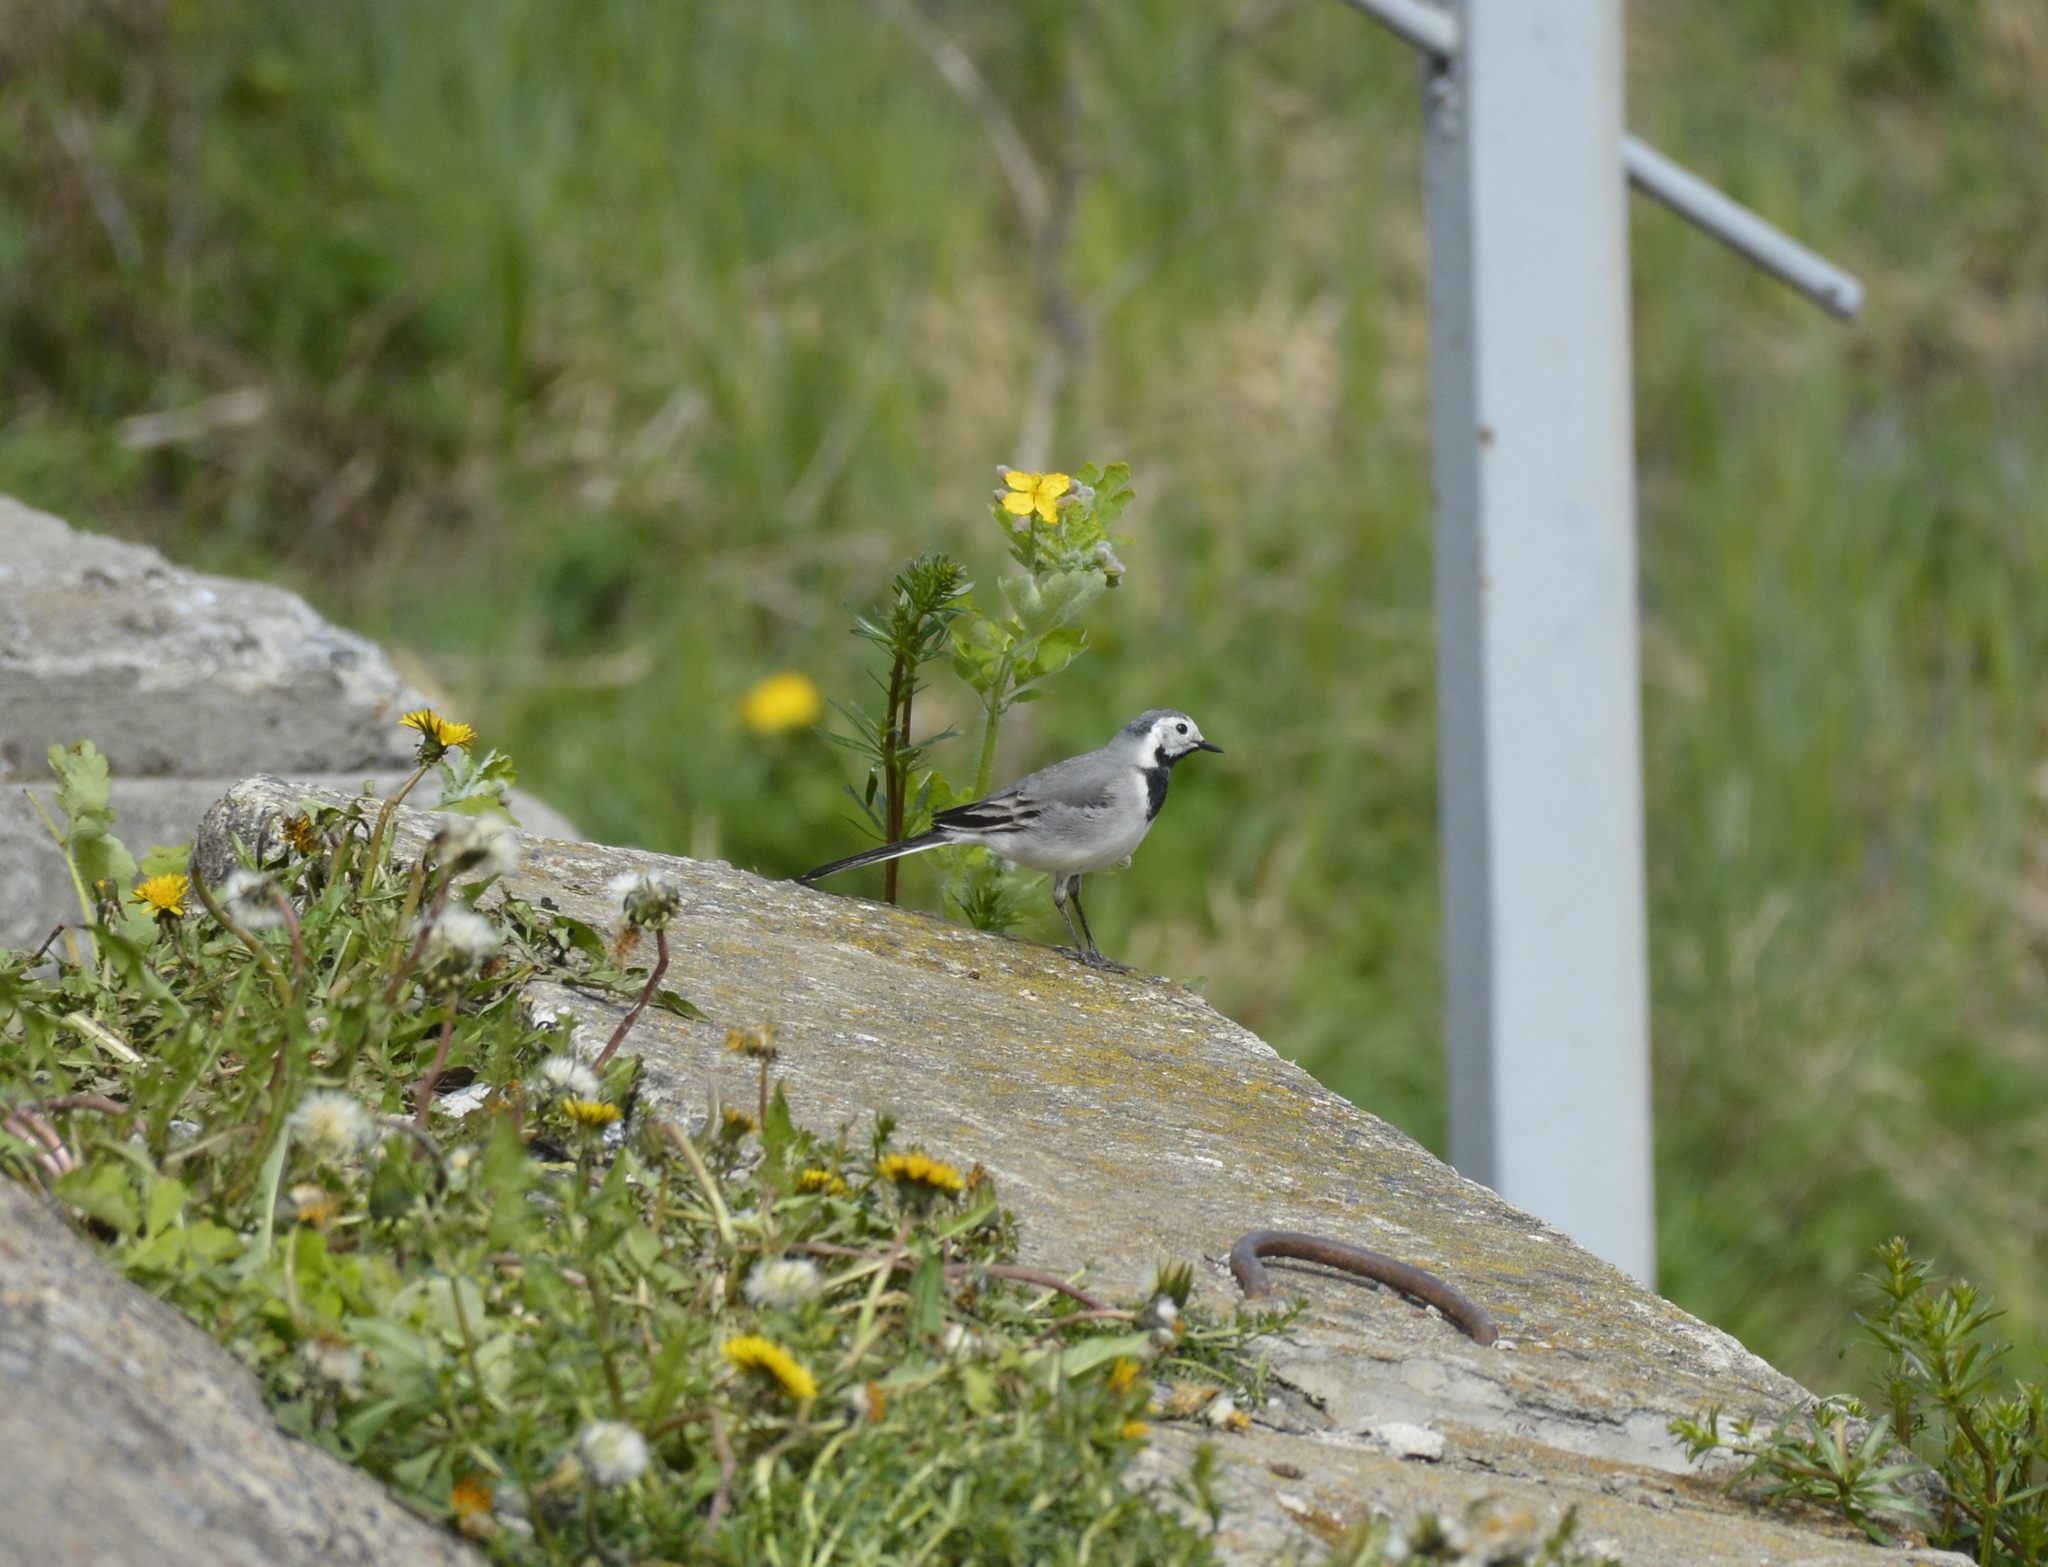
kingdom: Animalia
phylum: Chordata
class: Aves
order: Passeriformes
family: Motacillidae
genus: Motacilla
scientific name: Motacilla alba
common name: White wagtail
